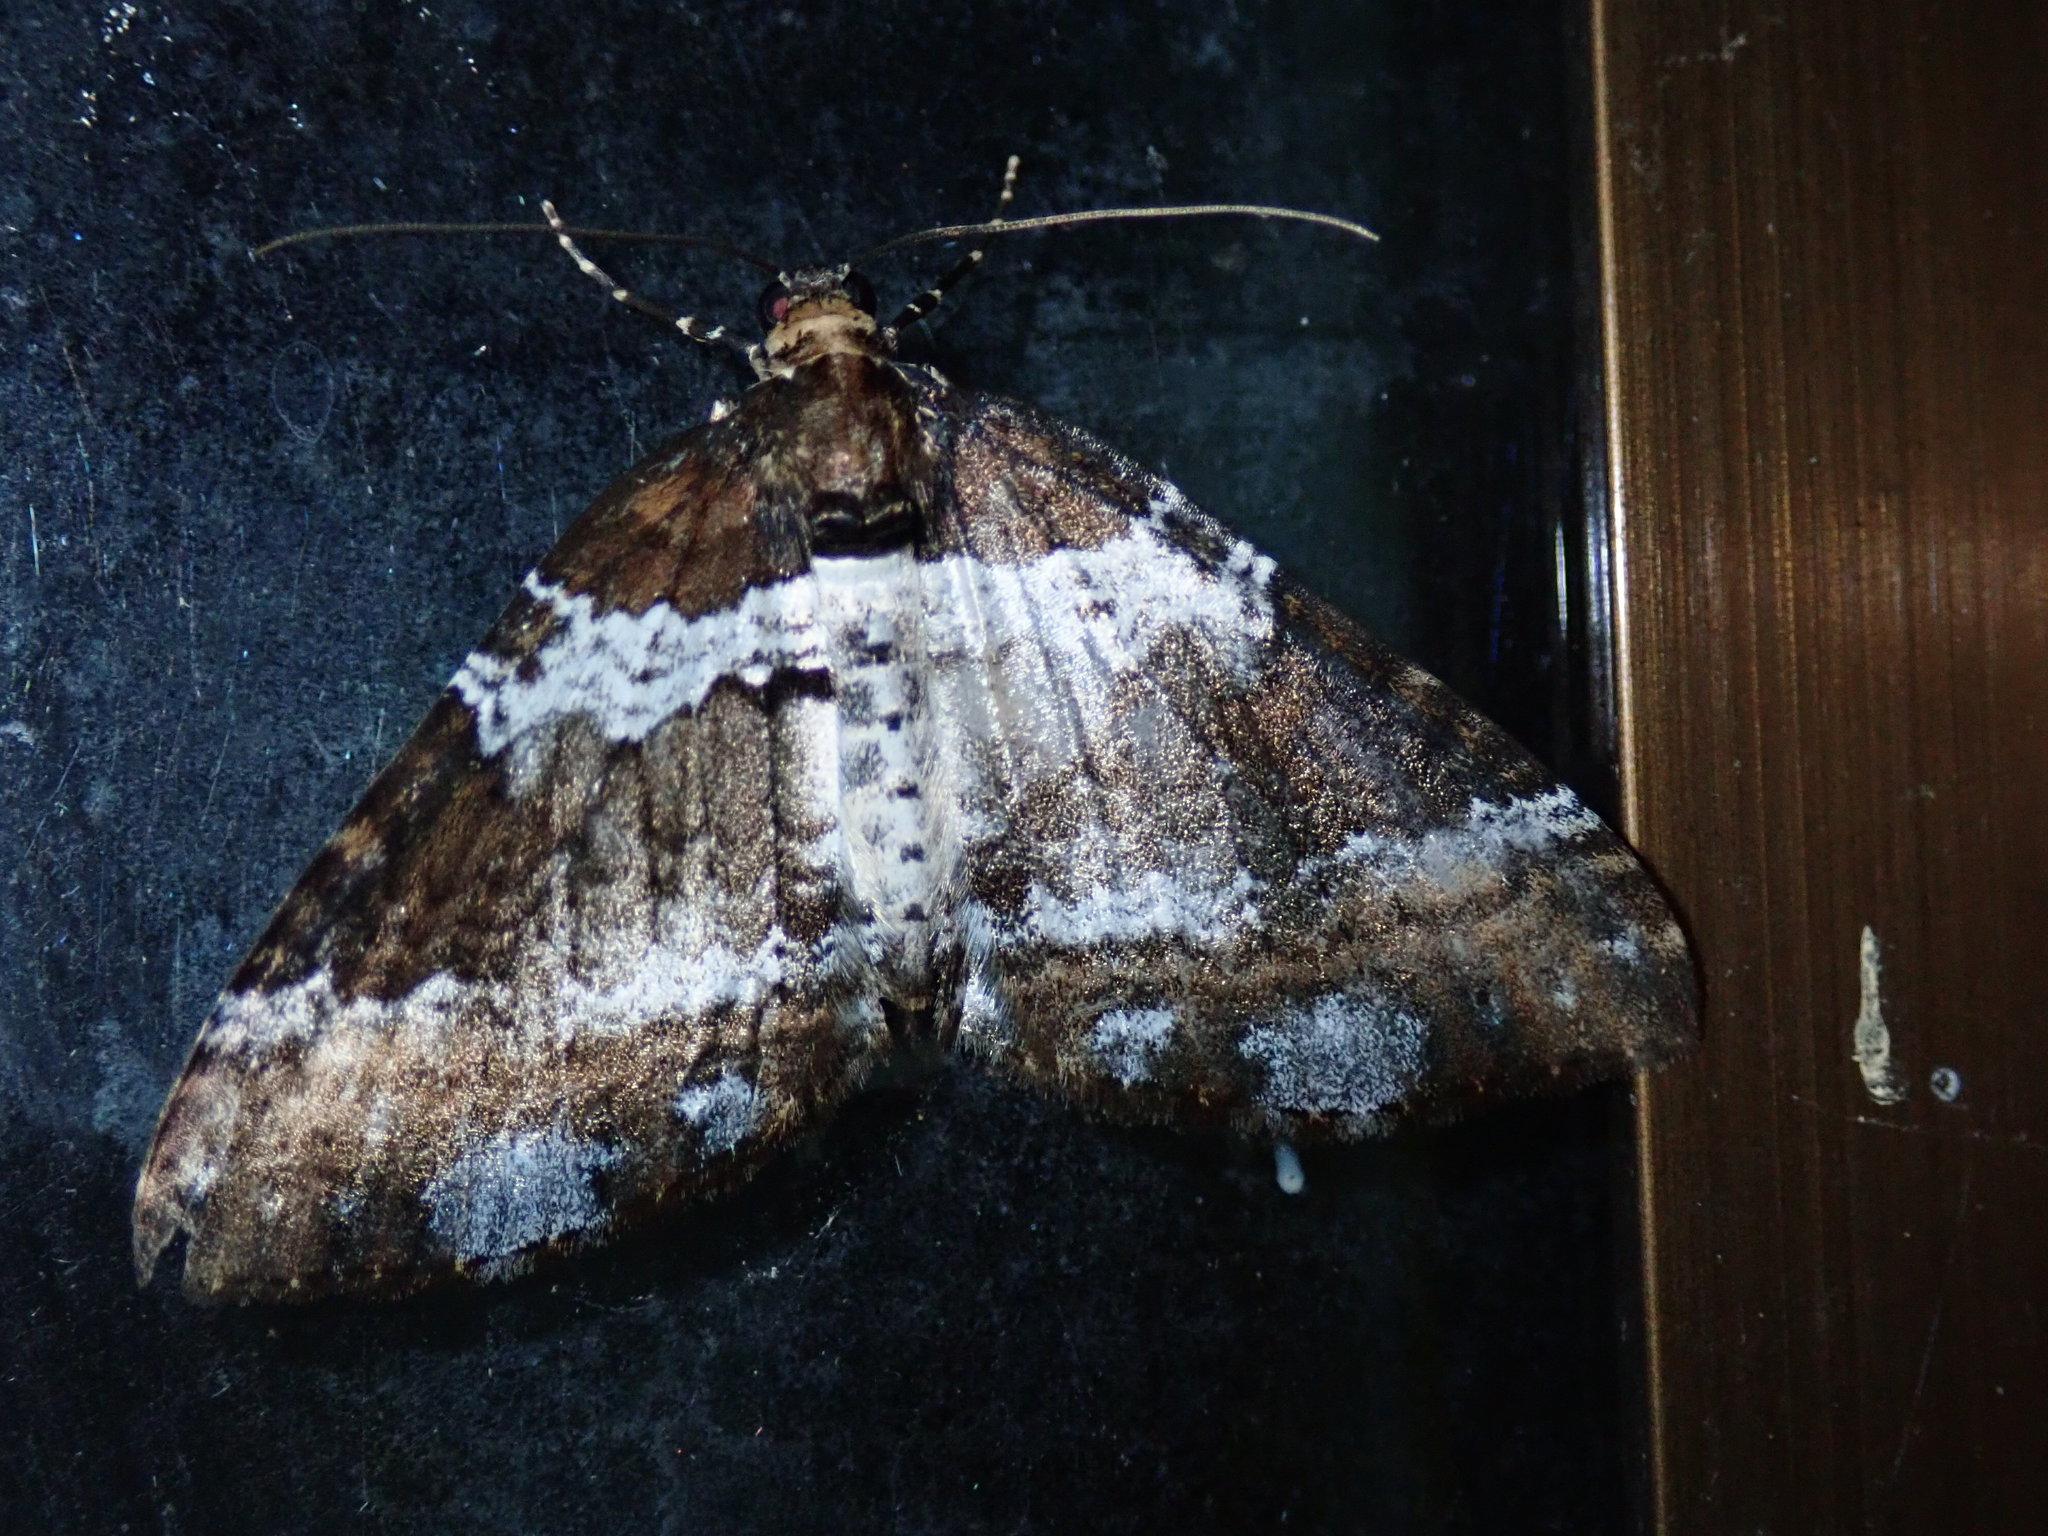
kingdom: Animalia
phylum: Arthropoda
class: Insecta
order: Lepidoptera
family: Geometridae
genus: Melanthia
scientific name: Melanthia procellata
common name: Pretty chalk carpet
